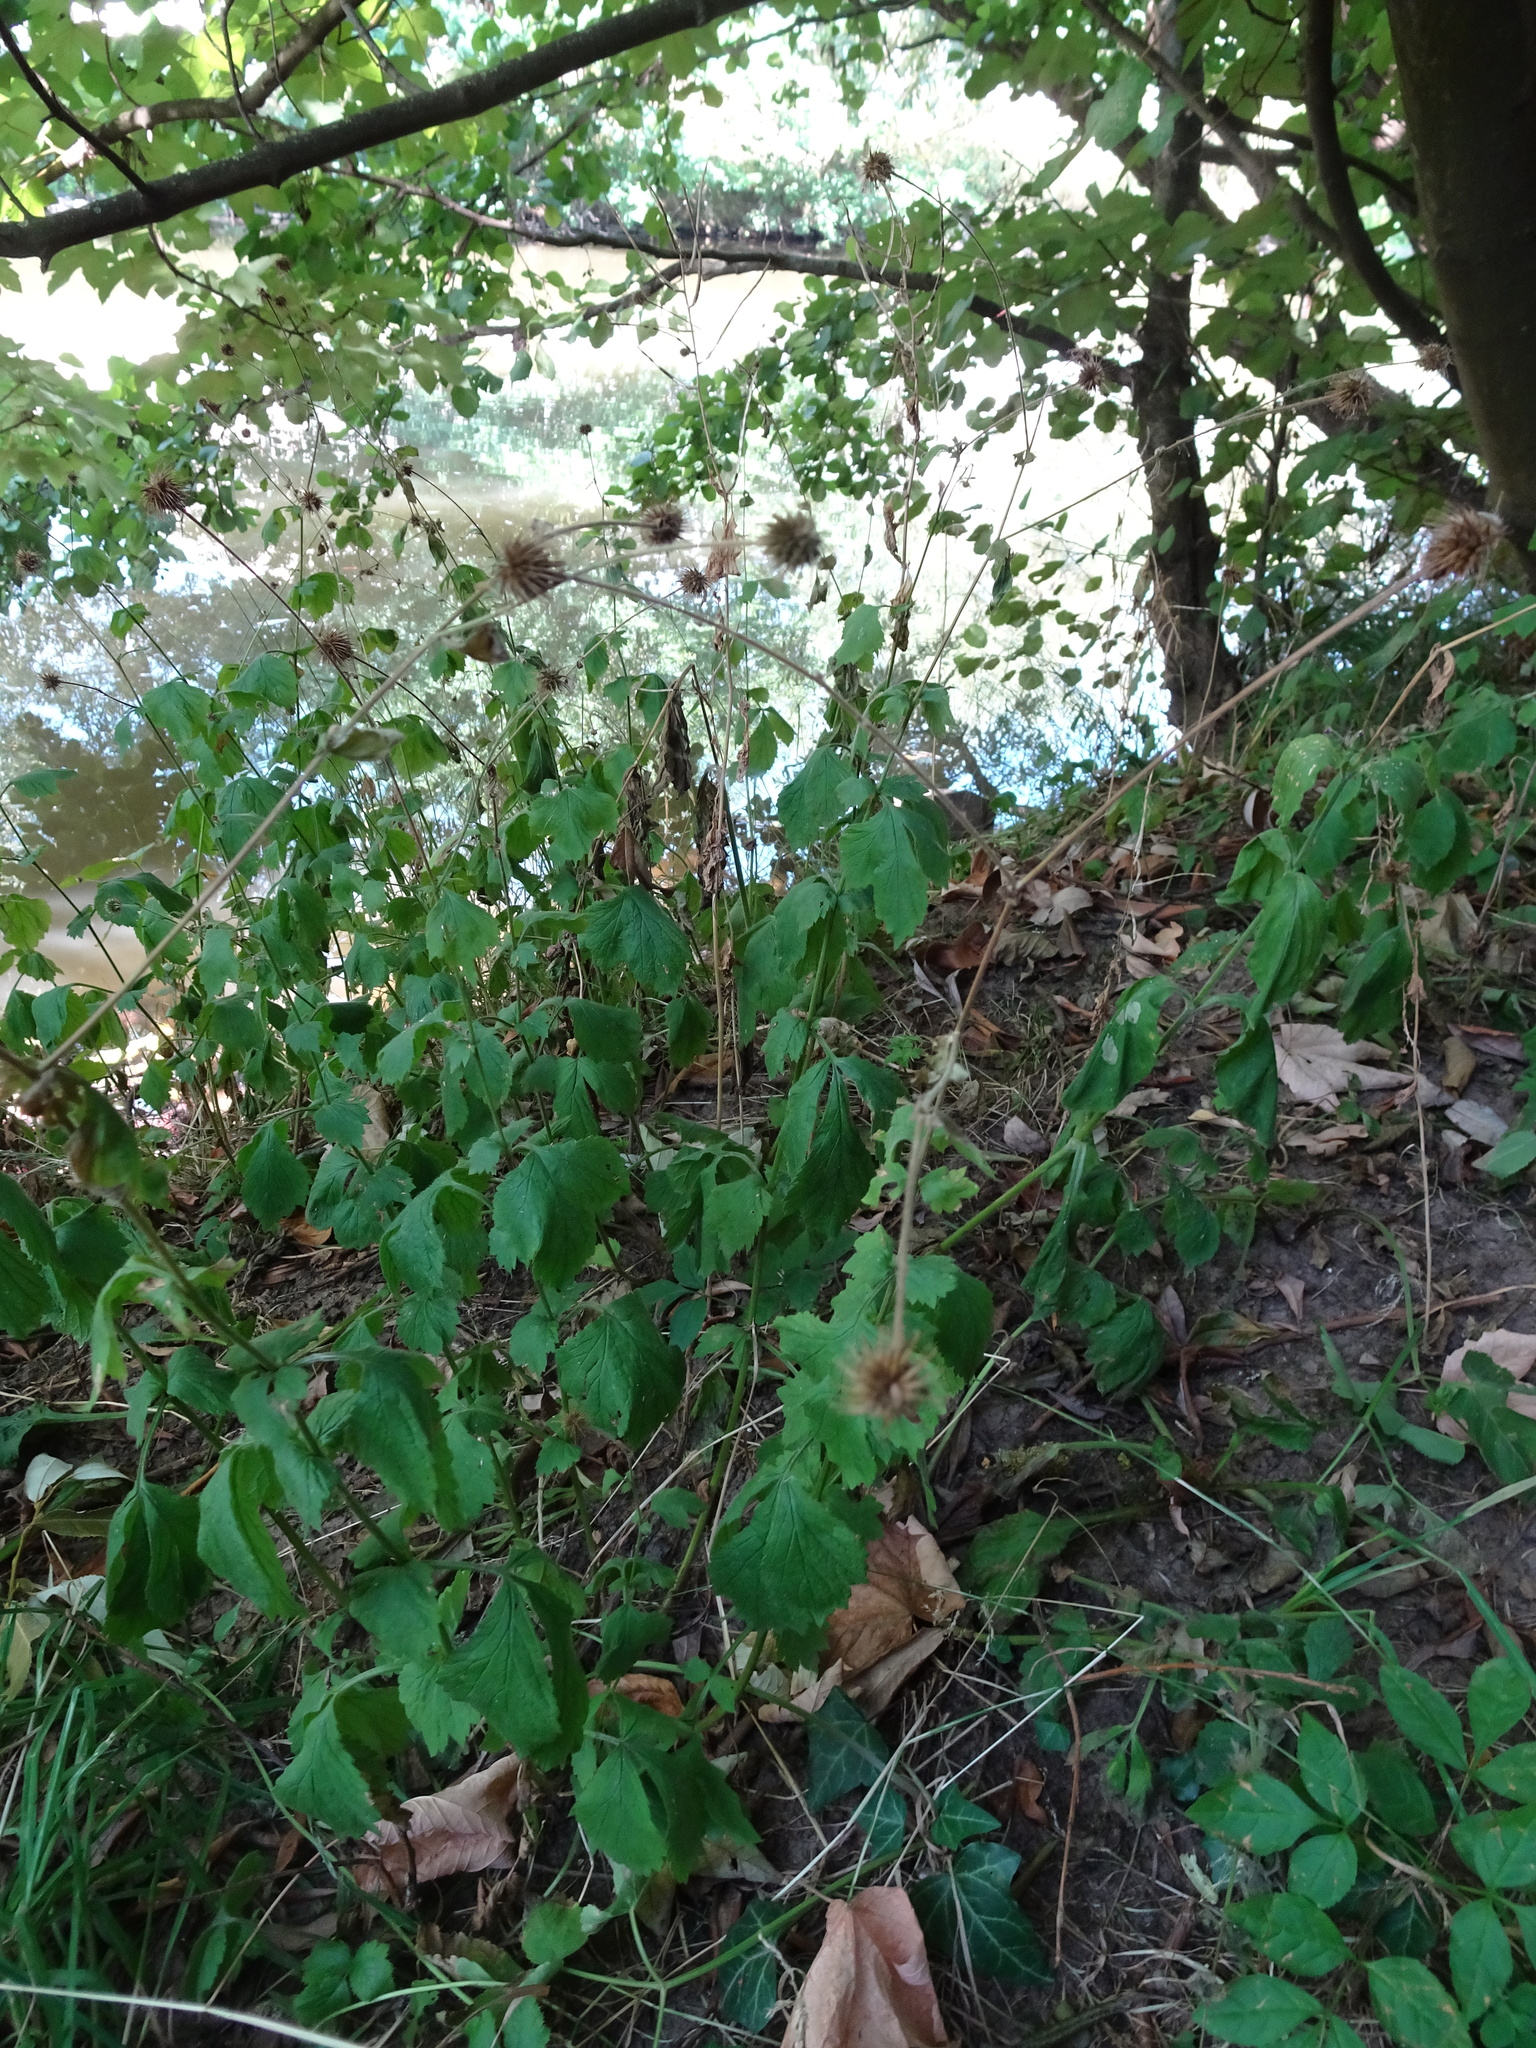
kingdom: Plantae
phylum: Tracheophyta
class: Magnoliopsida
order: Rosales
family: Rosaceae
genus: Geum
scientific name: Geum urbanum
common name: Wood avens
